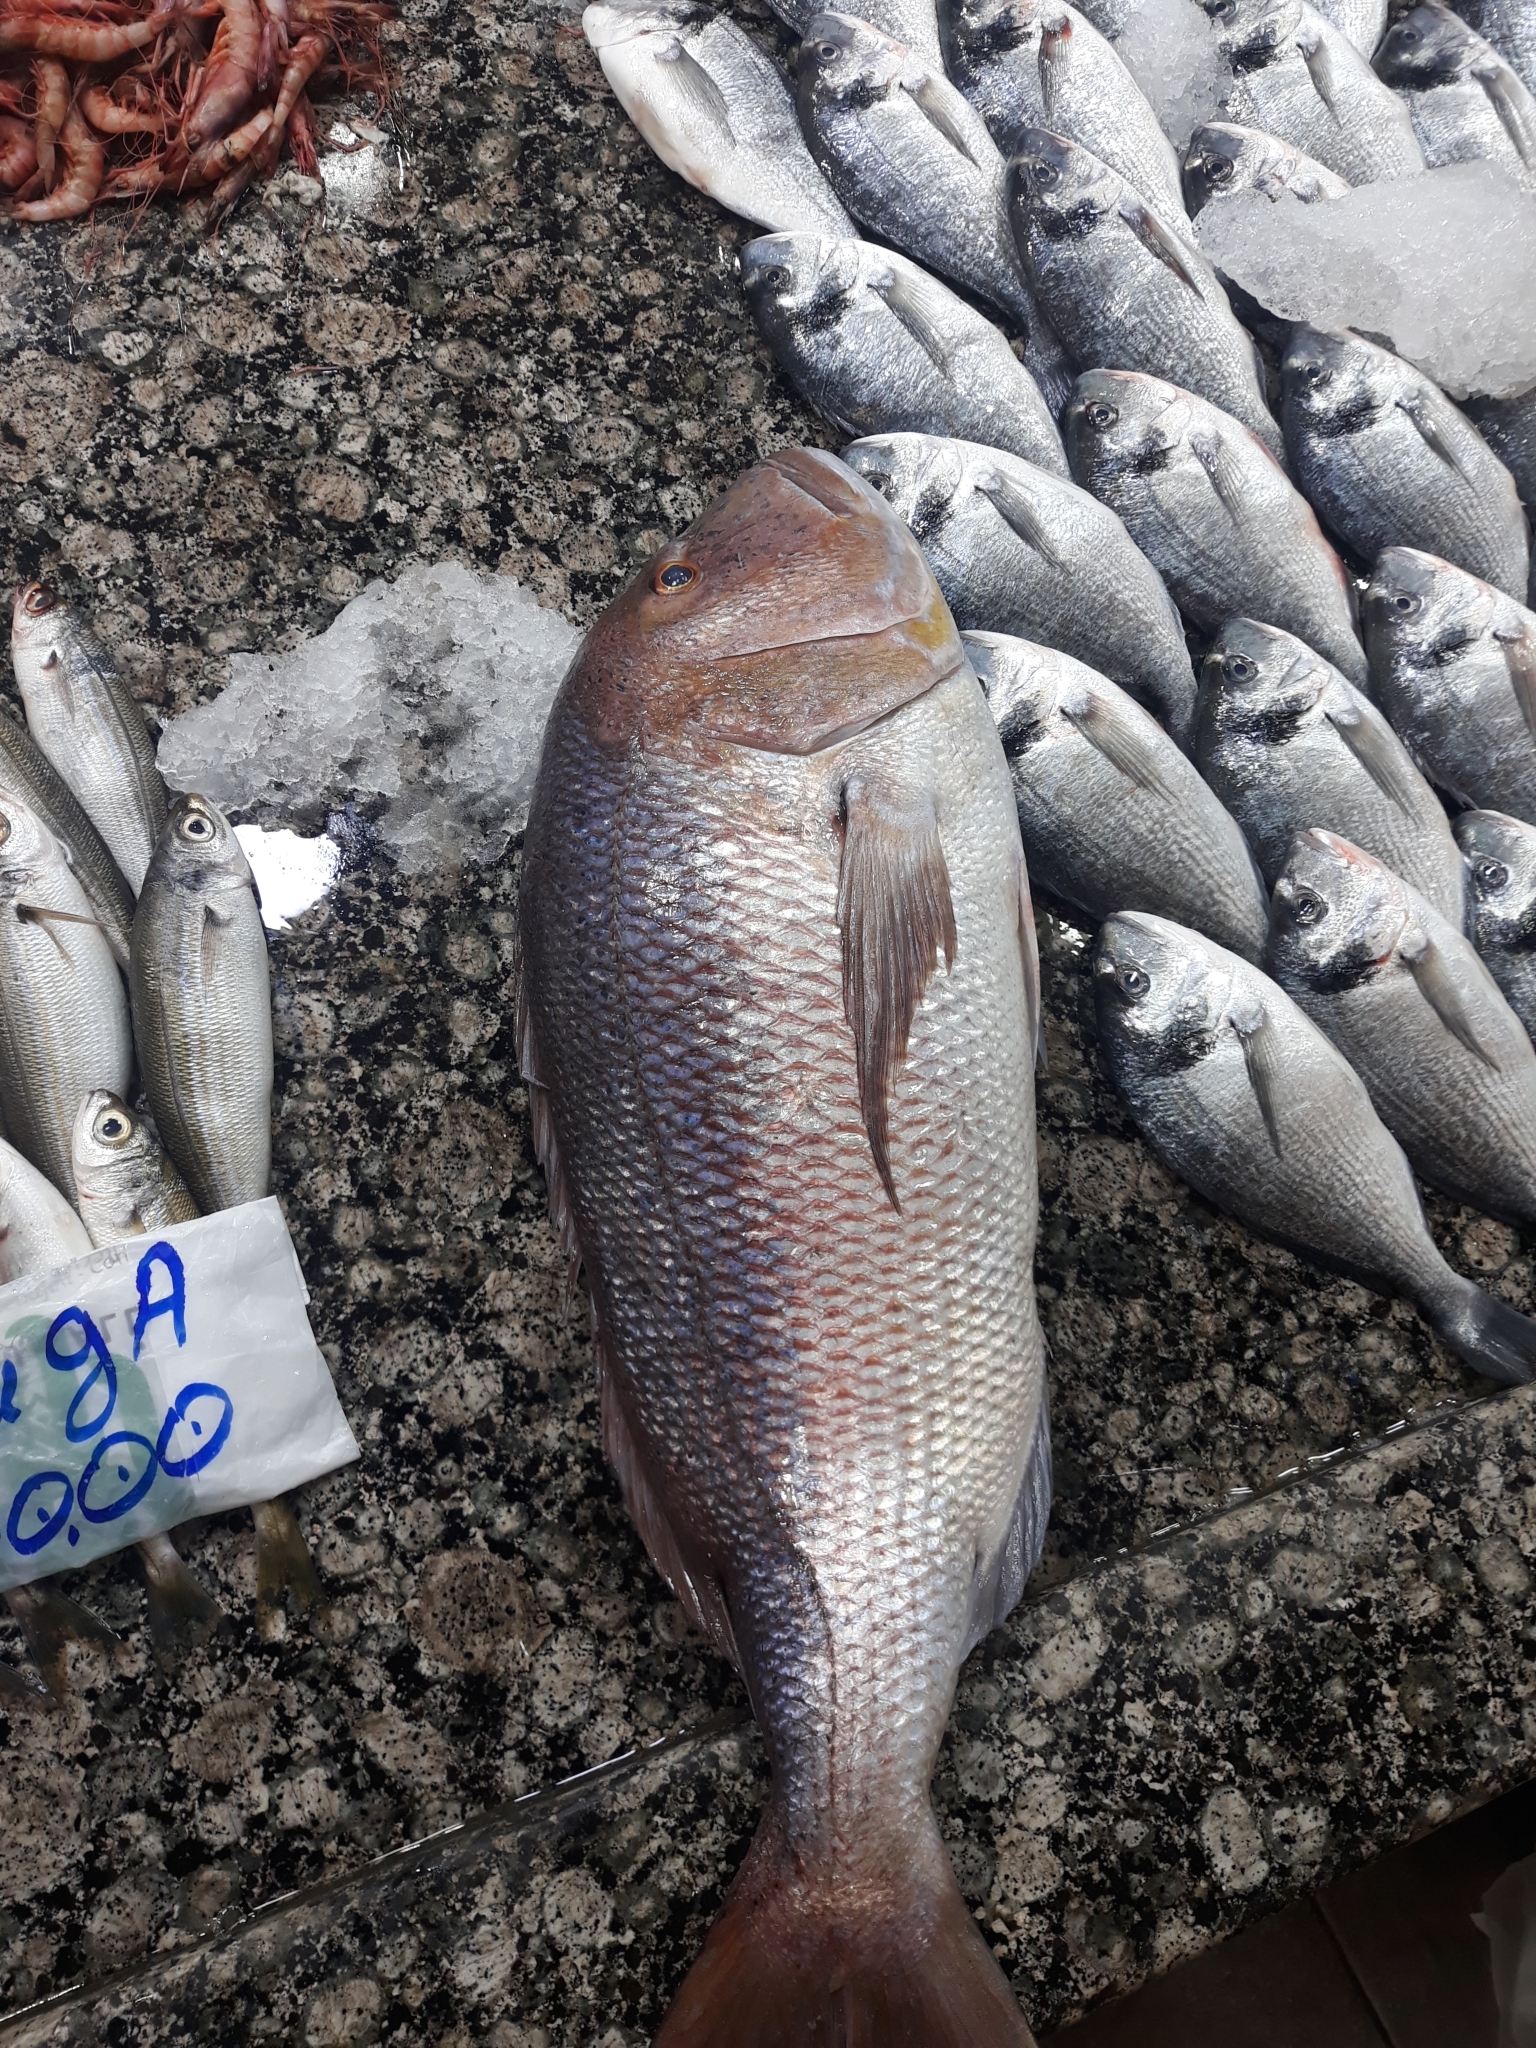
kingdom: Animalia
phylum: Chordata
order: Perciformes
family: Sparidae
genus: Dentex
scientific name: Dentex dentex
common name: Dentex
